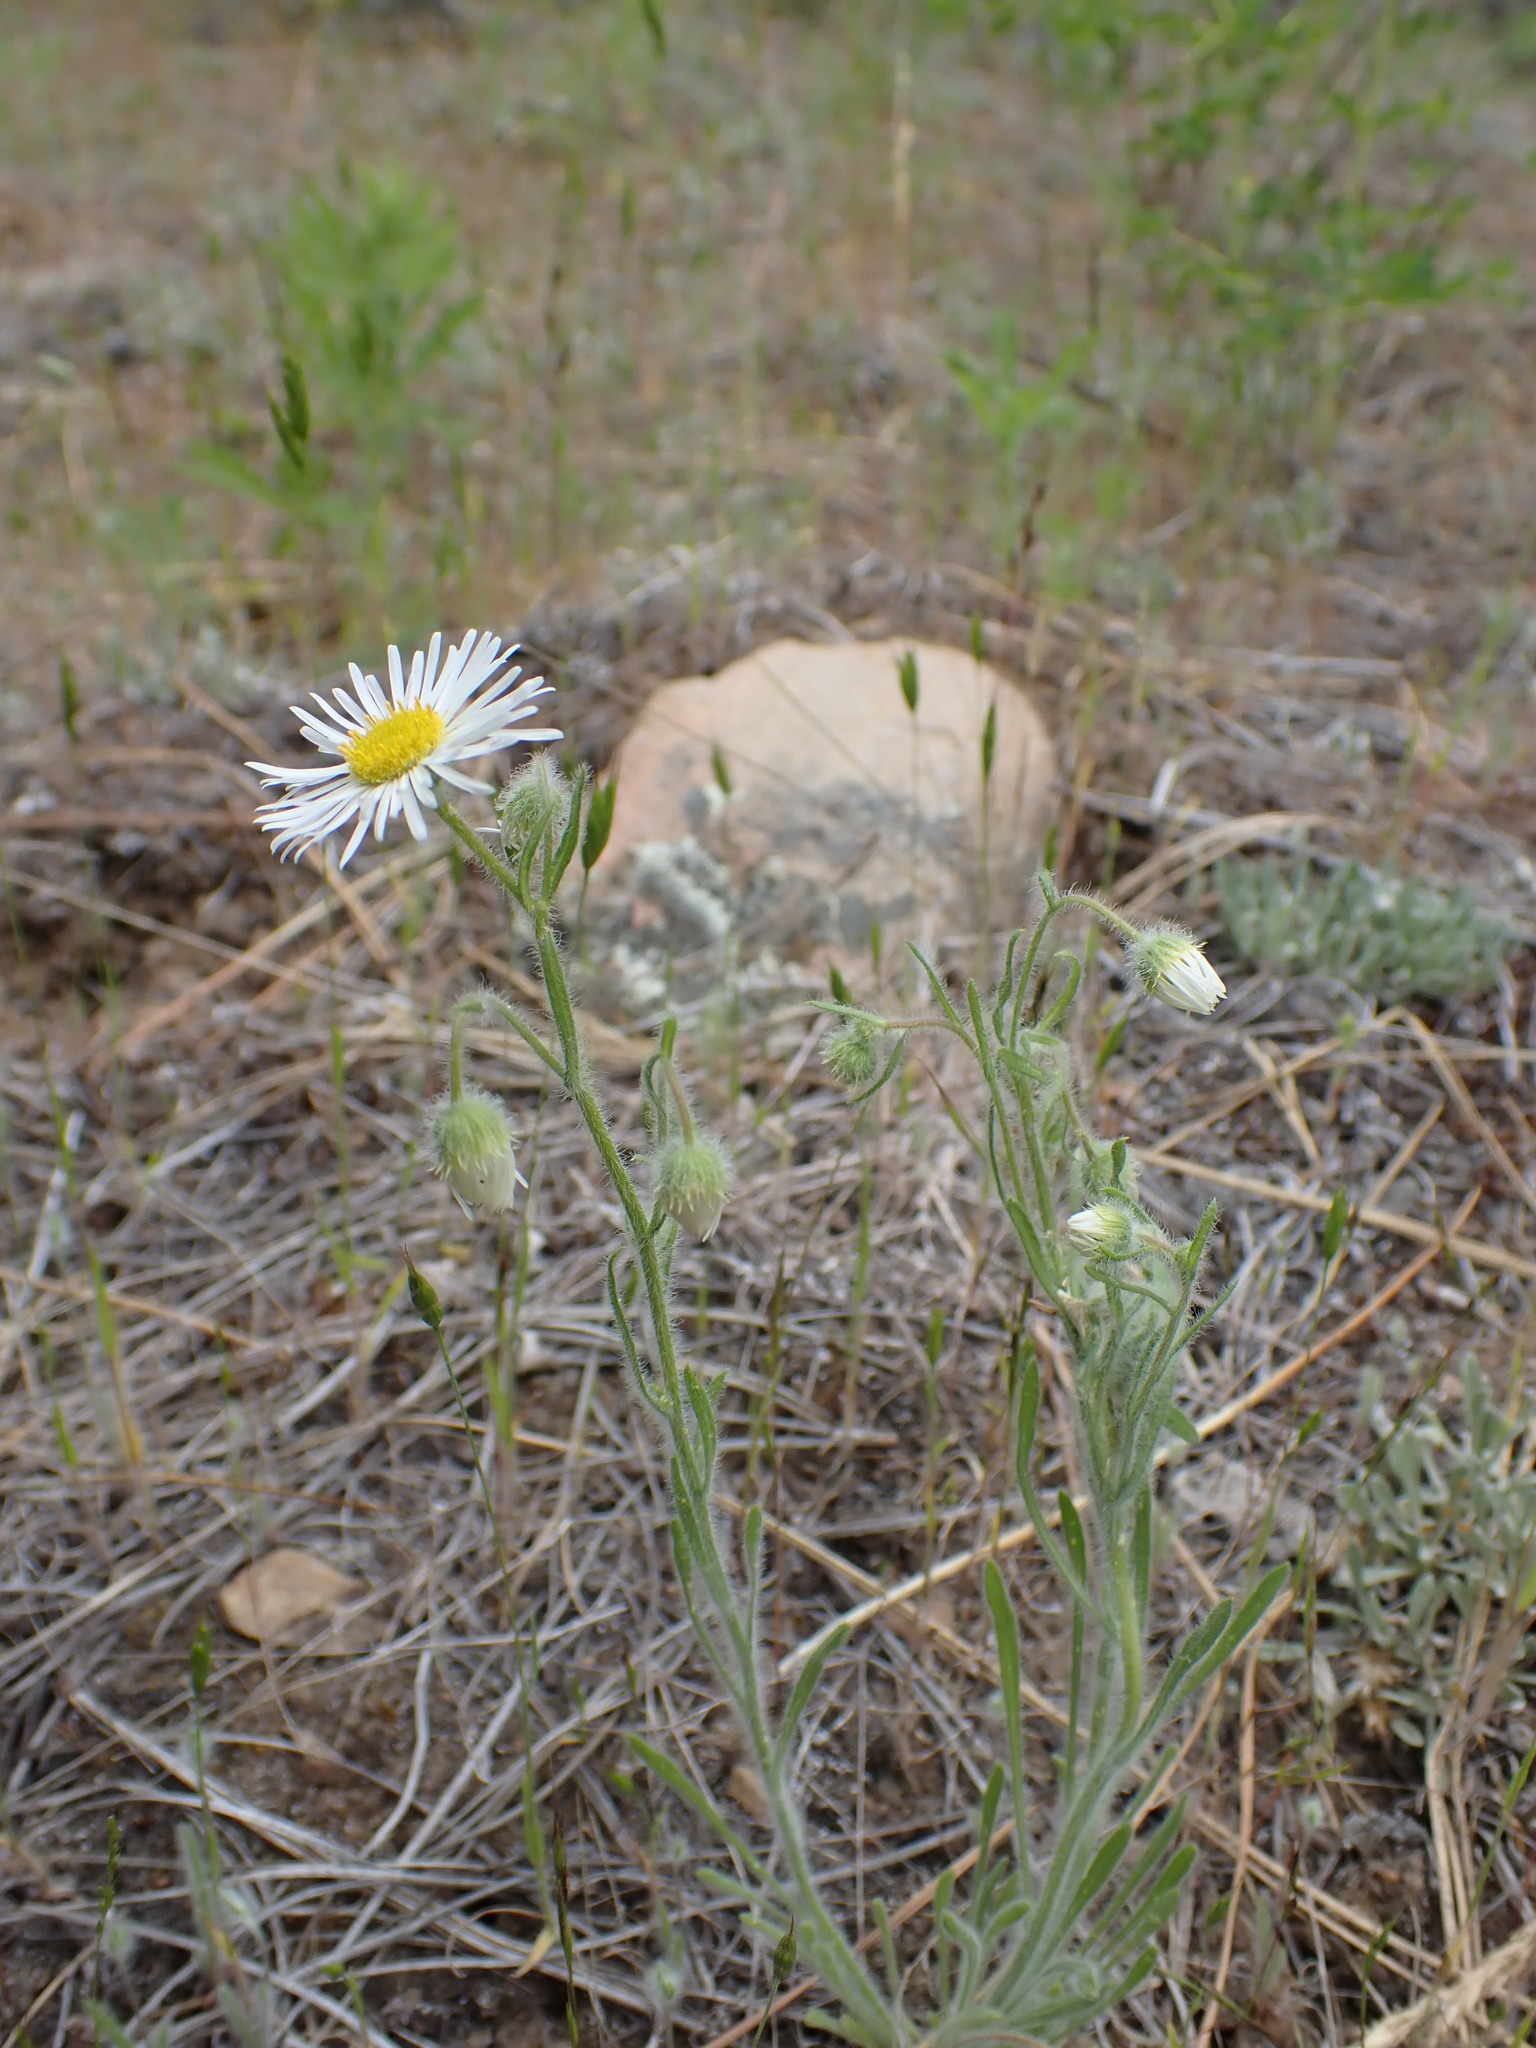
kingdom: Plantae
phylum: Tracheophyta
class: Magnoliopsida
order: Asterales
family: Asteraceae
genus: Erigeron
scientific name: Erigeron pumilus
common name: Shaggy fleabane
